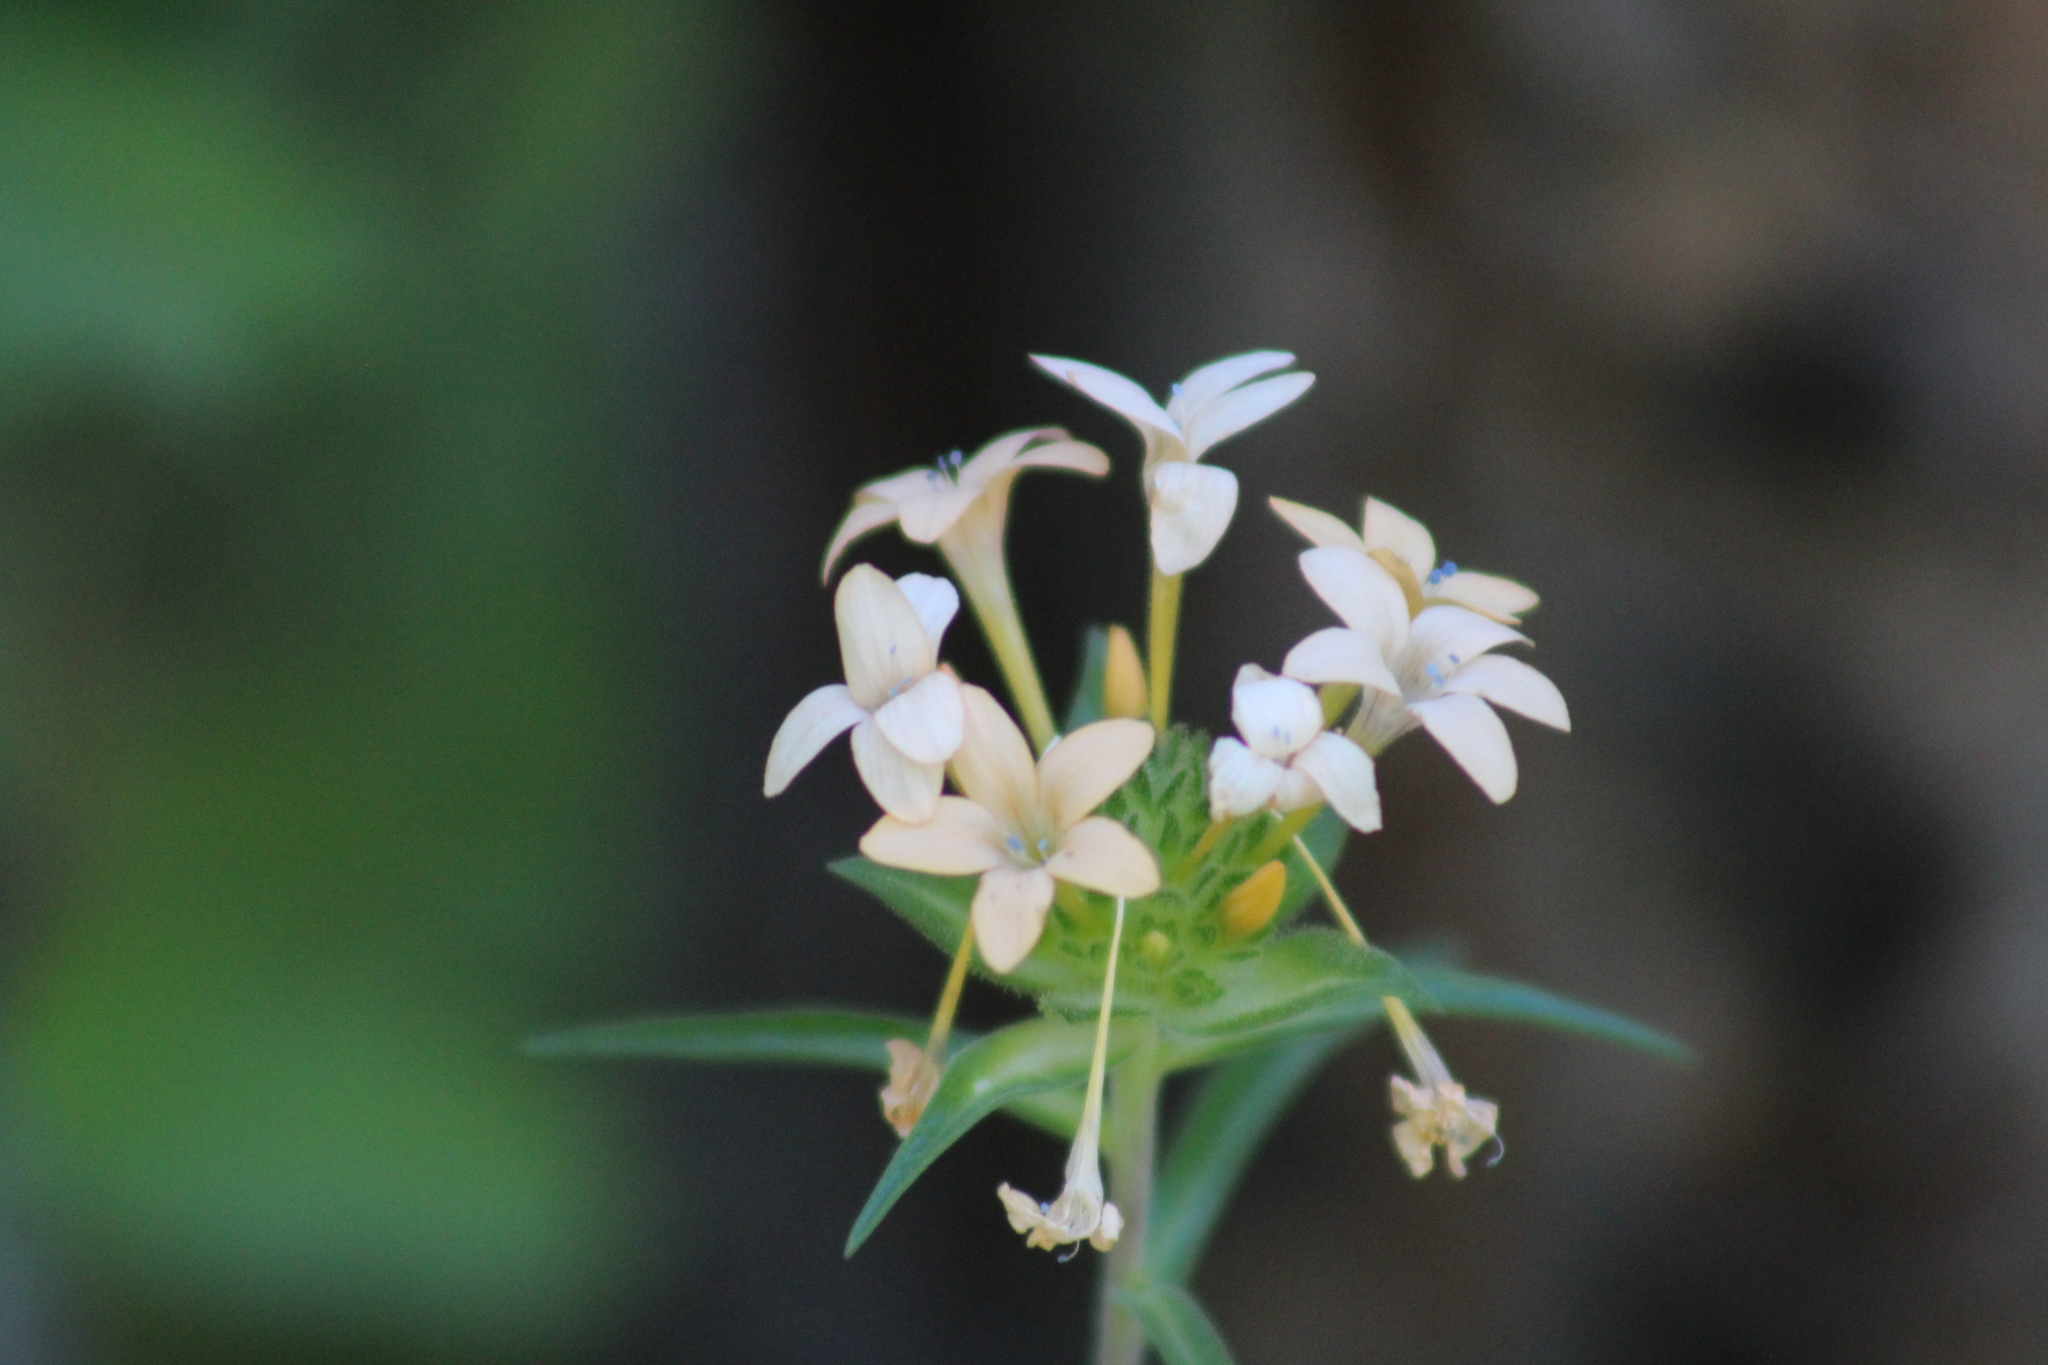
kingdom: Plantae
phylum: Tracheophyta
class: Magnoliopsida
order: Ericales
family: Polemoniaceae
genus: Collomia
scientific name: Collomia grandiflora
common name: California strawflower
